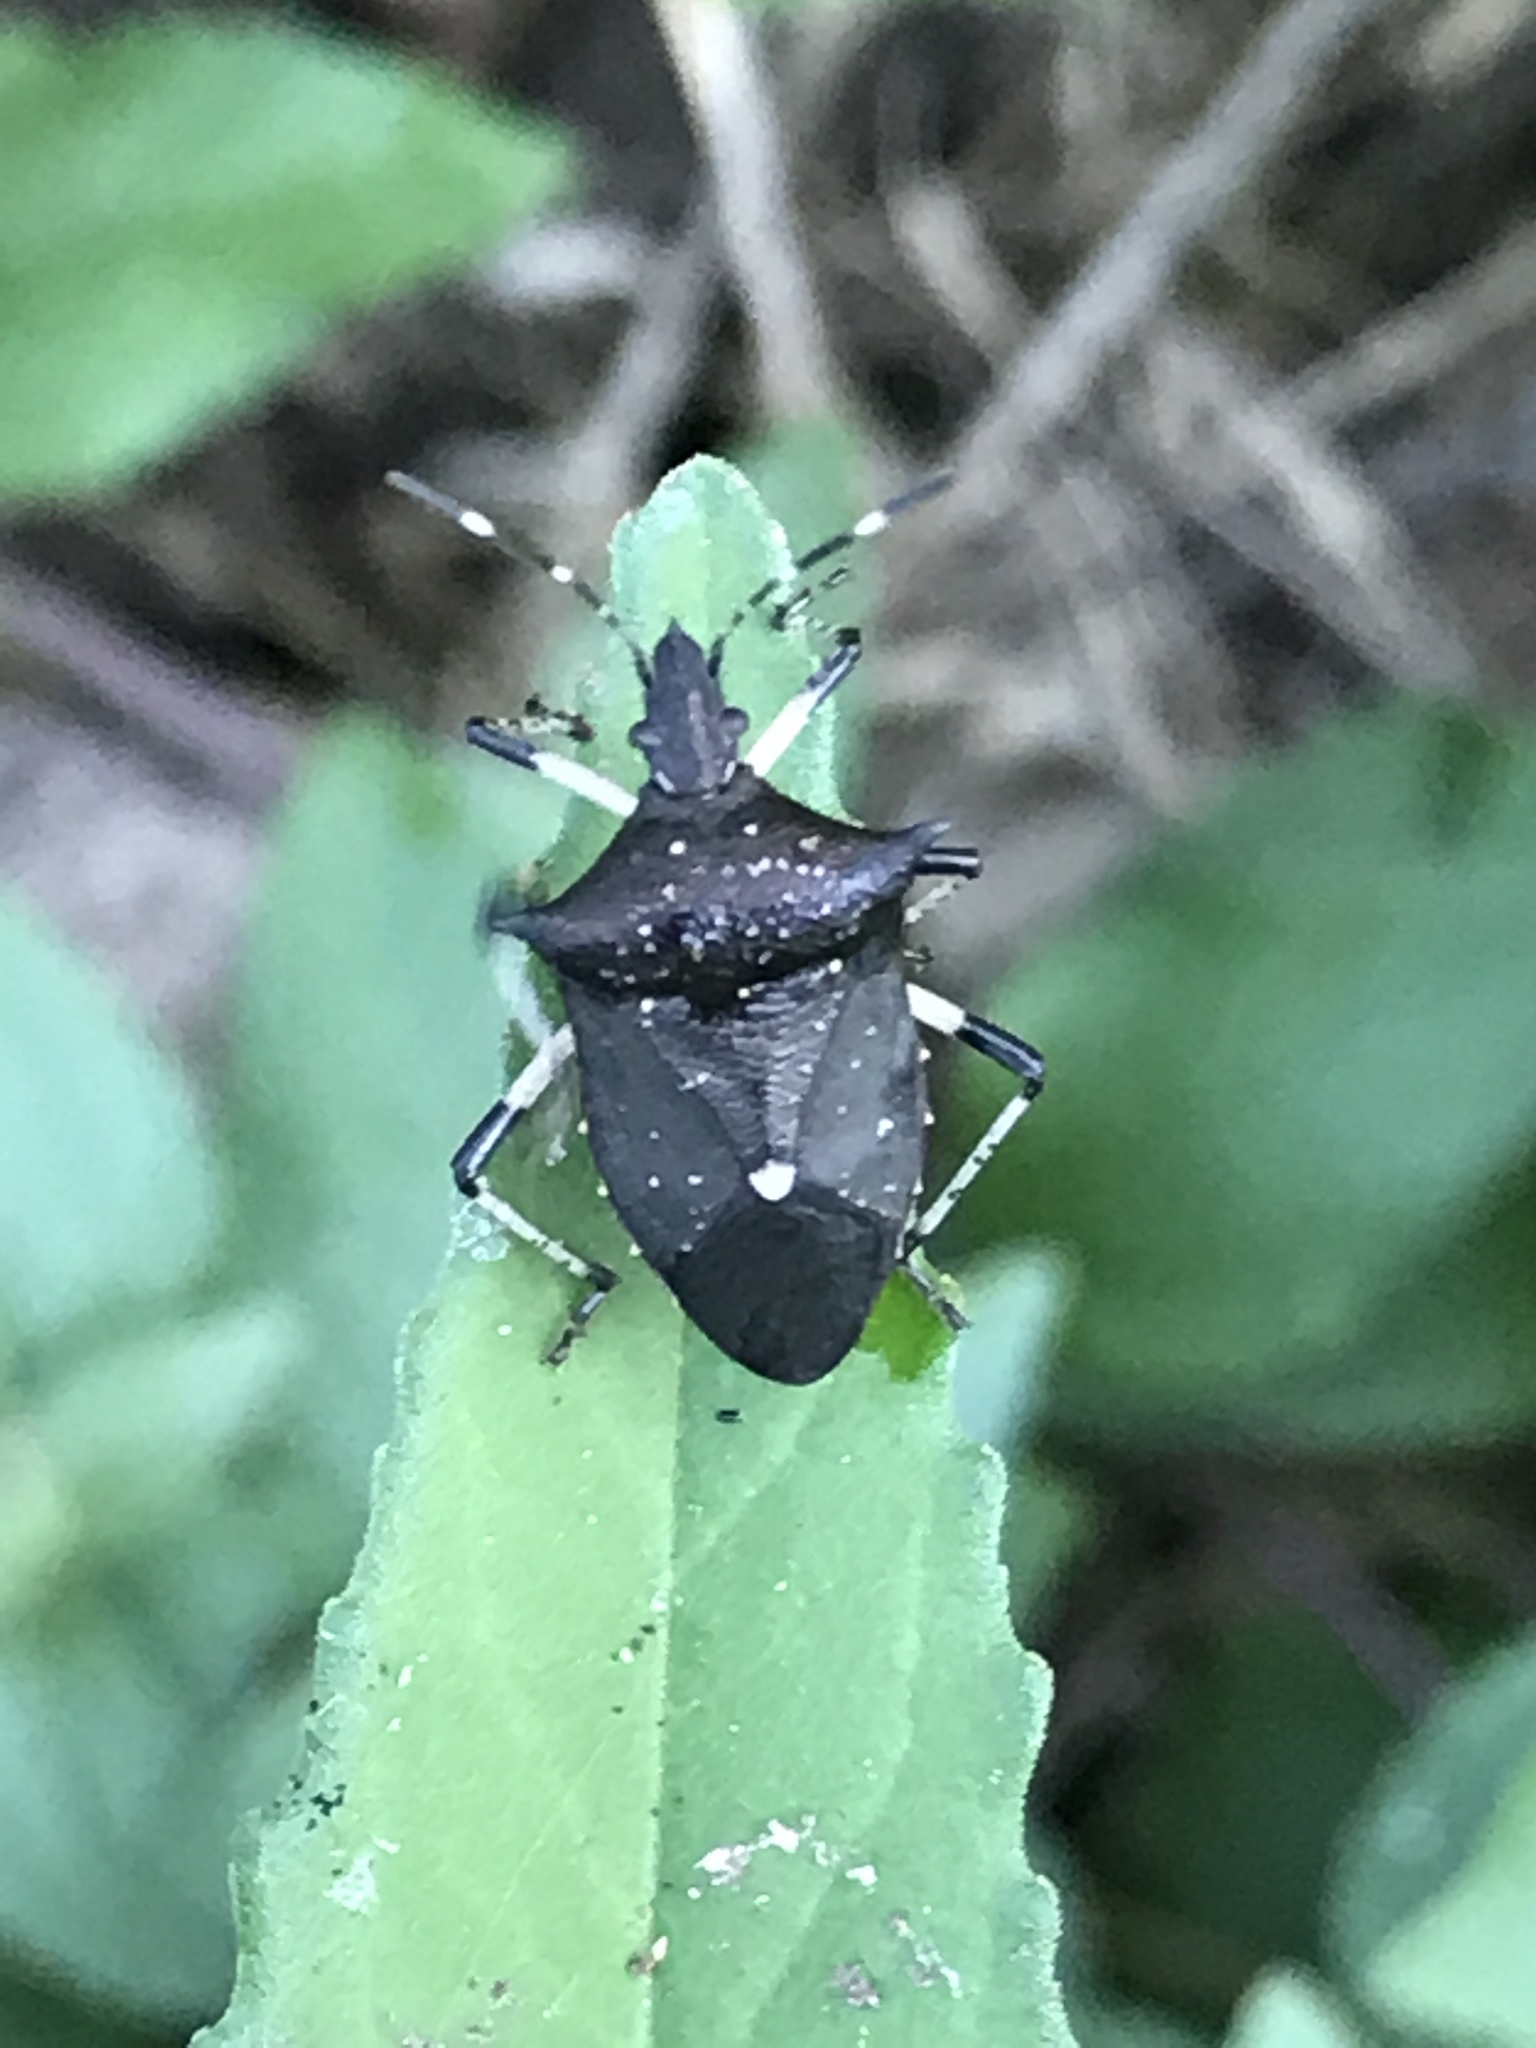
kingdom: Animalia
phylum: Arthropoda
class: Insecta
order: Hemiptera
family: Pentatomidae
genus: Proxys
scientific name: Proxys punctulatus
